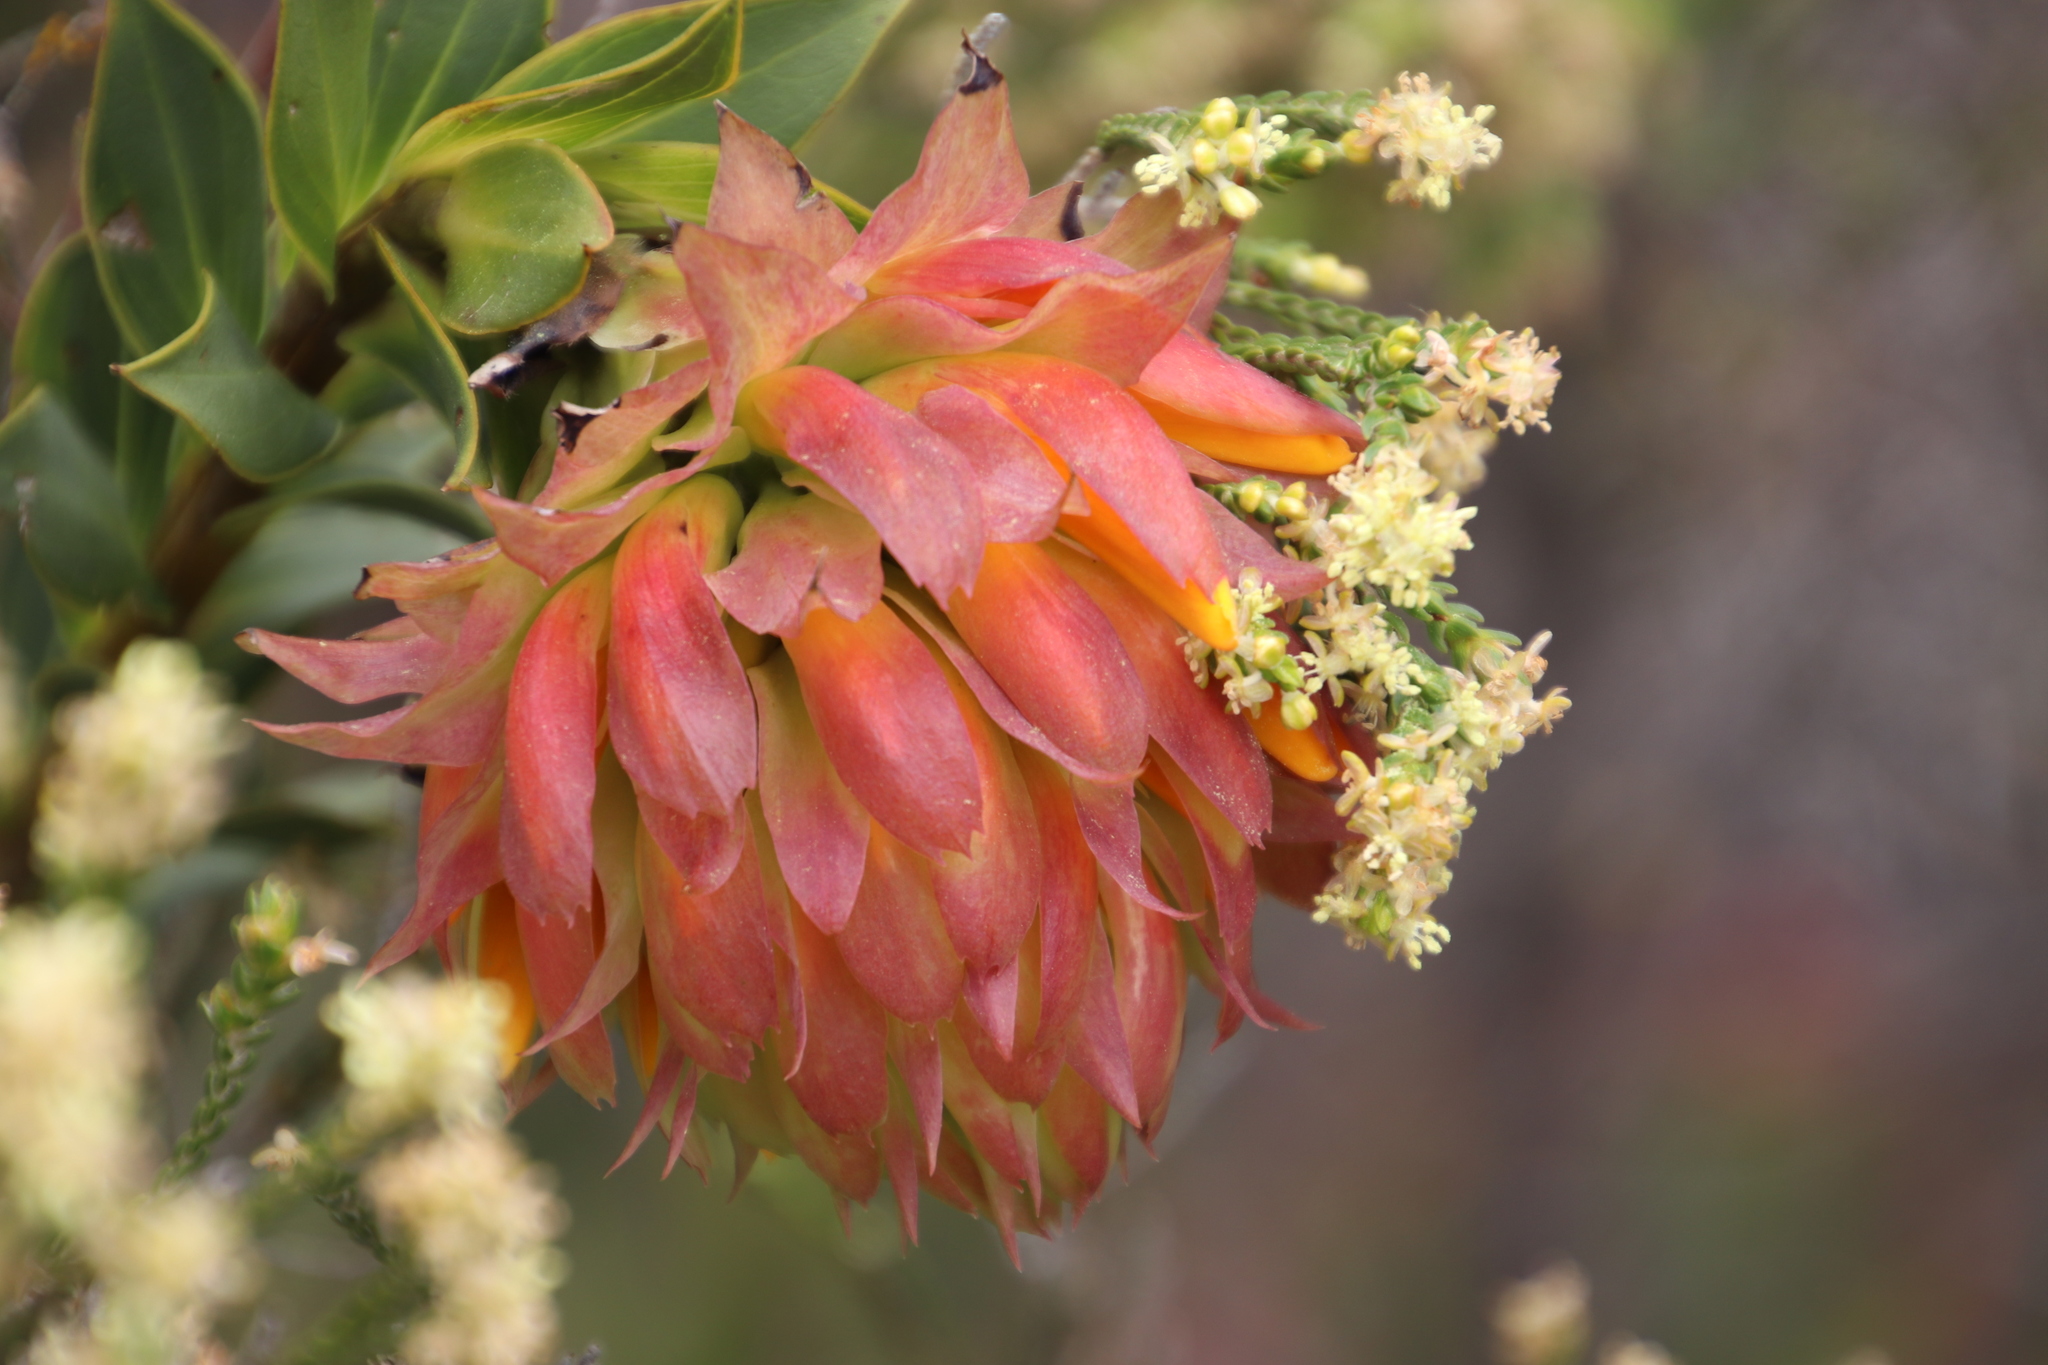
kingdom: Plantae
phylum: Tracheophyta
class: Magnoliopsida
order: Fabales
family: Fabaceae
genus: Liparia
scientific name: Liparia splendens
